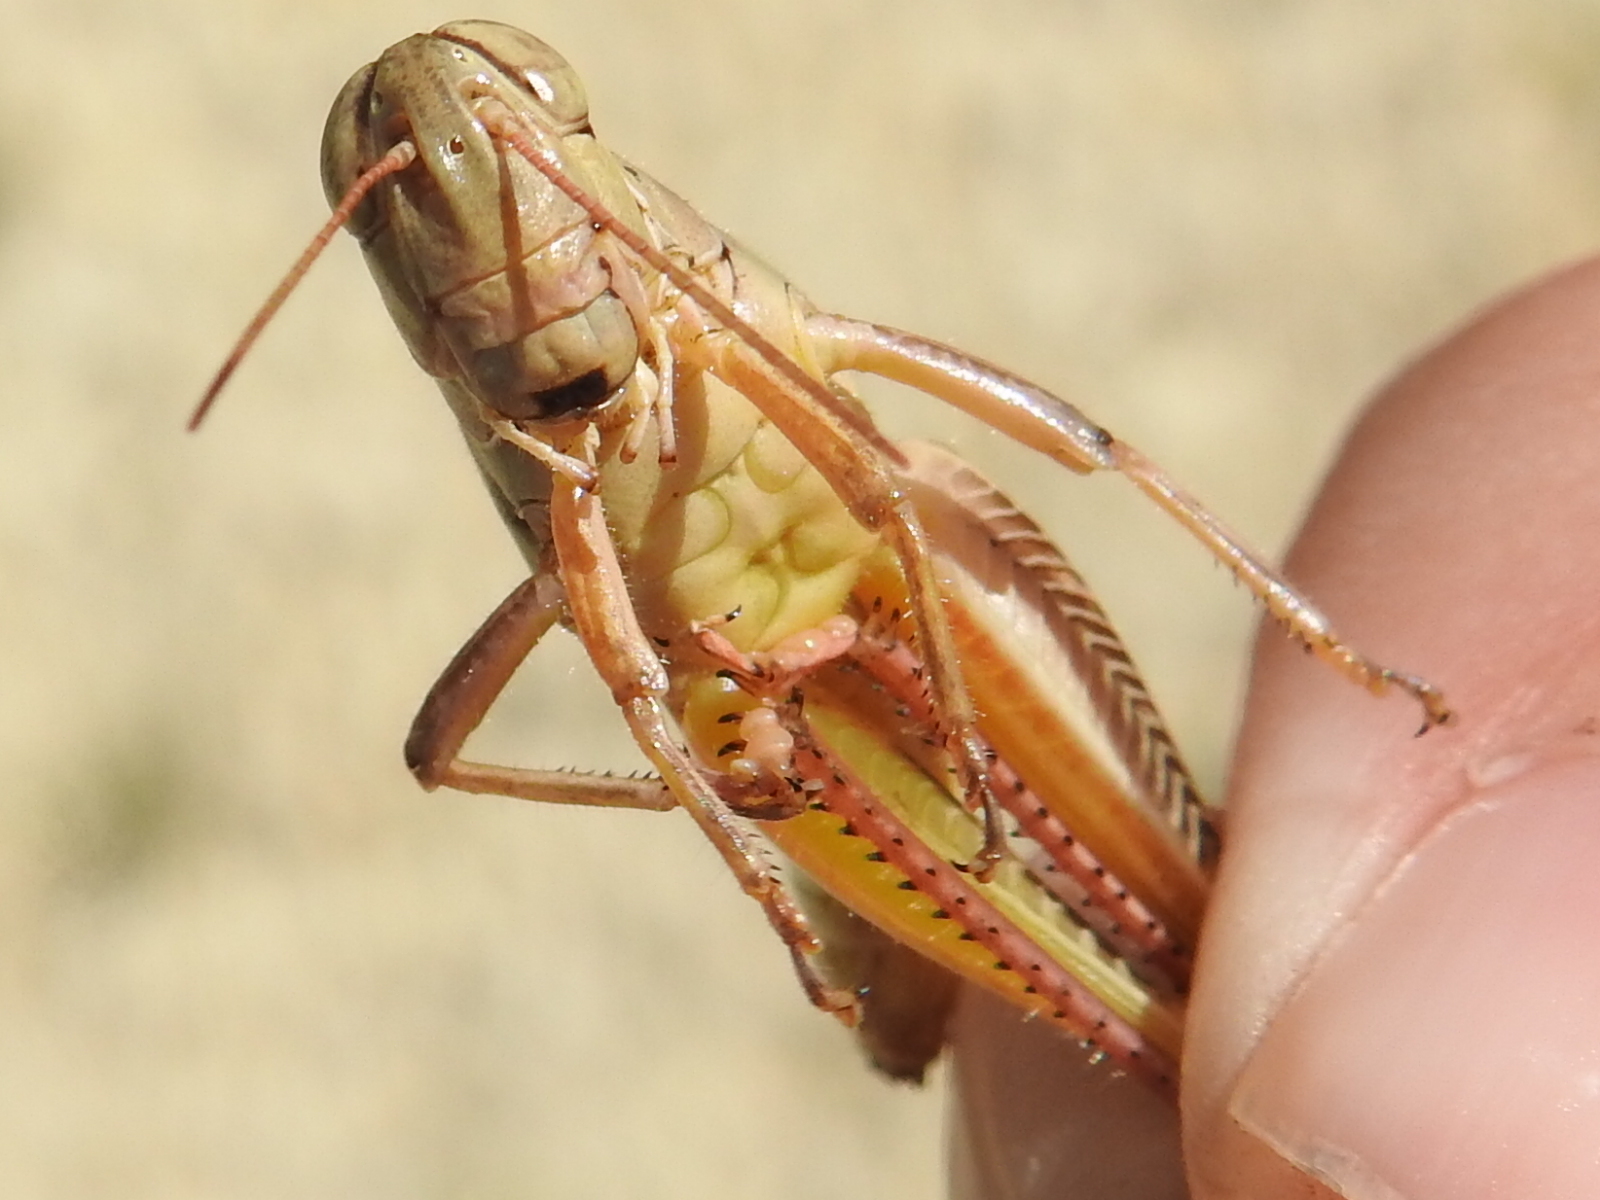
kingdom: Animalia
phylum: Arthropoda
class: Insecta
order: Orthoptera
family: Acrididae
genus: Melanoplus
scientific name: Melanoplus femurrubrum
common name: Red-legged grasshopper
